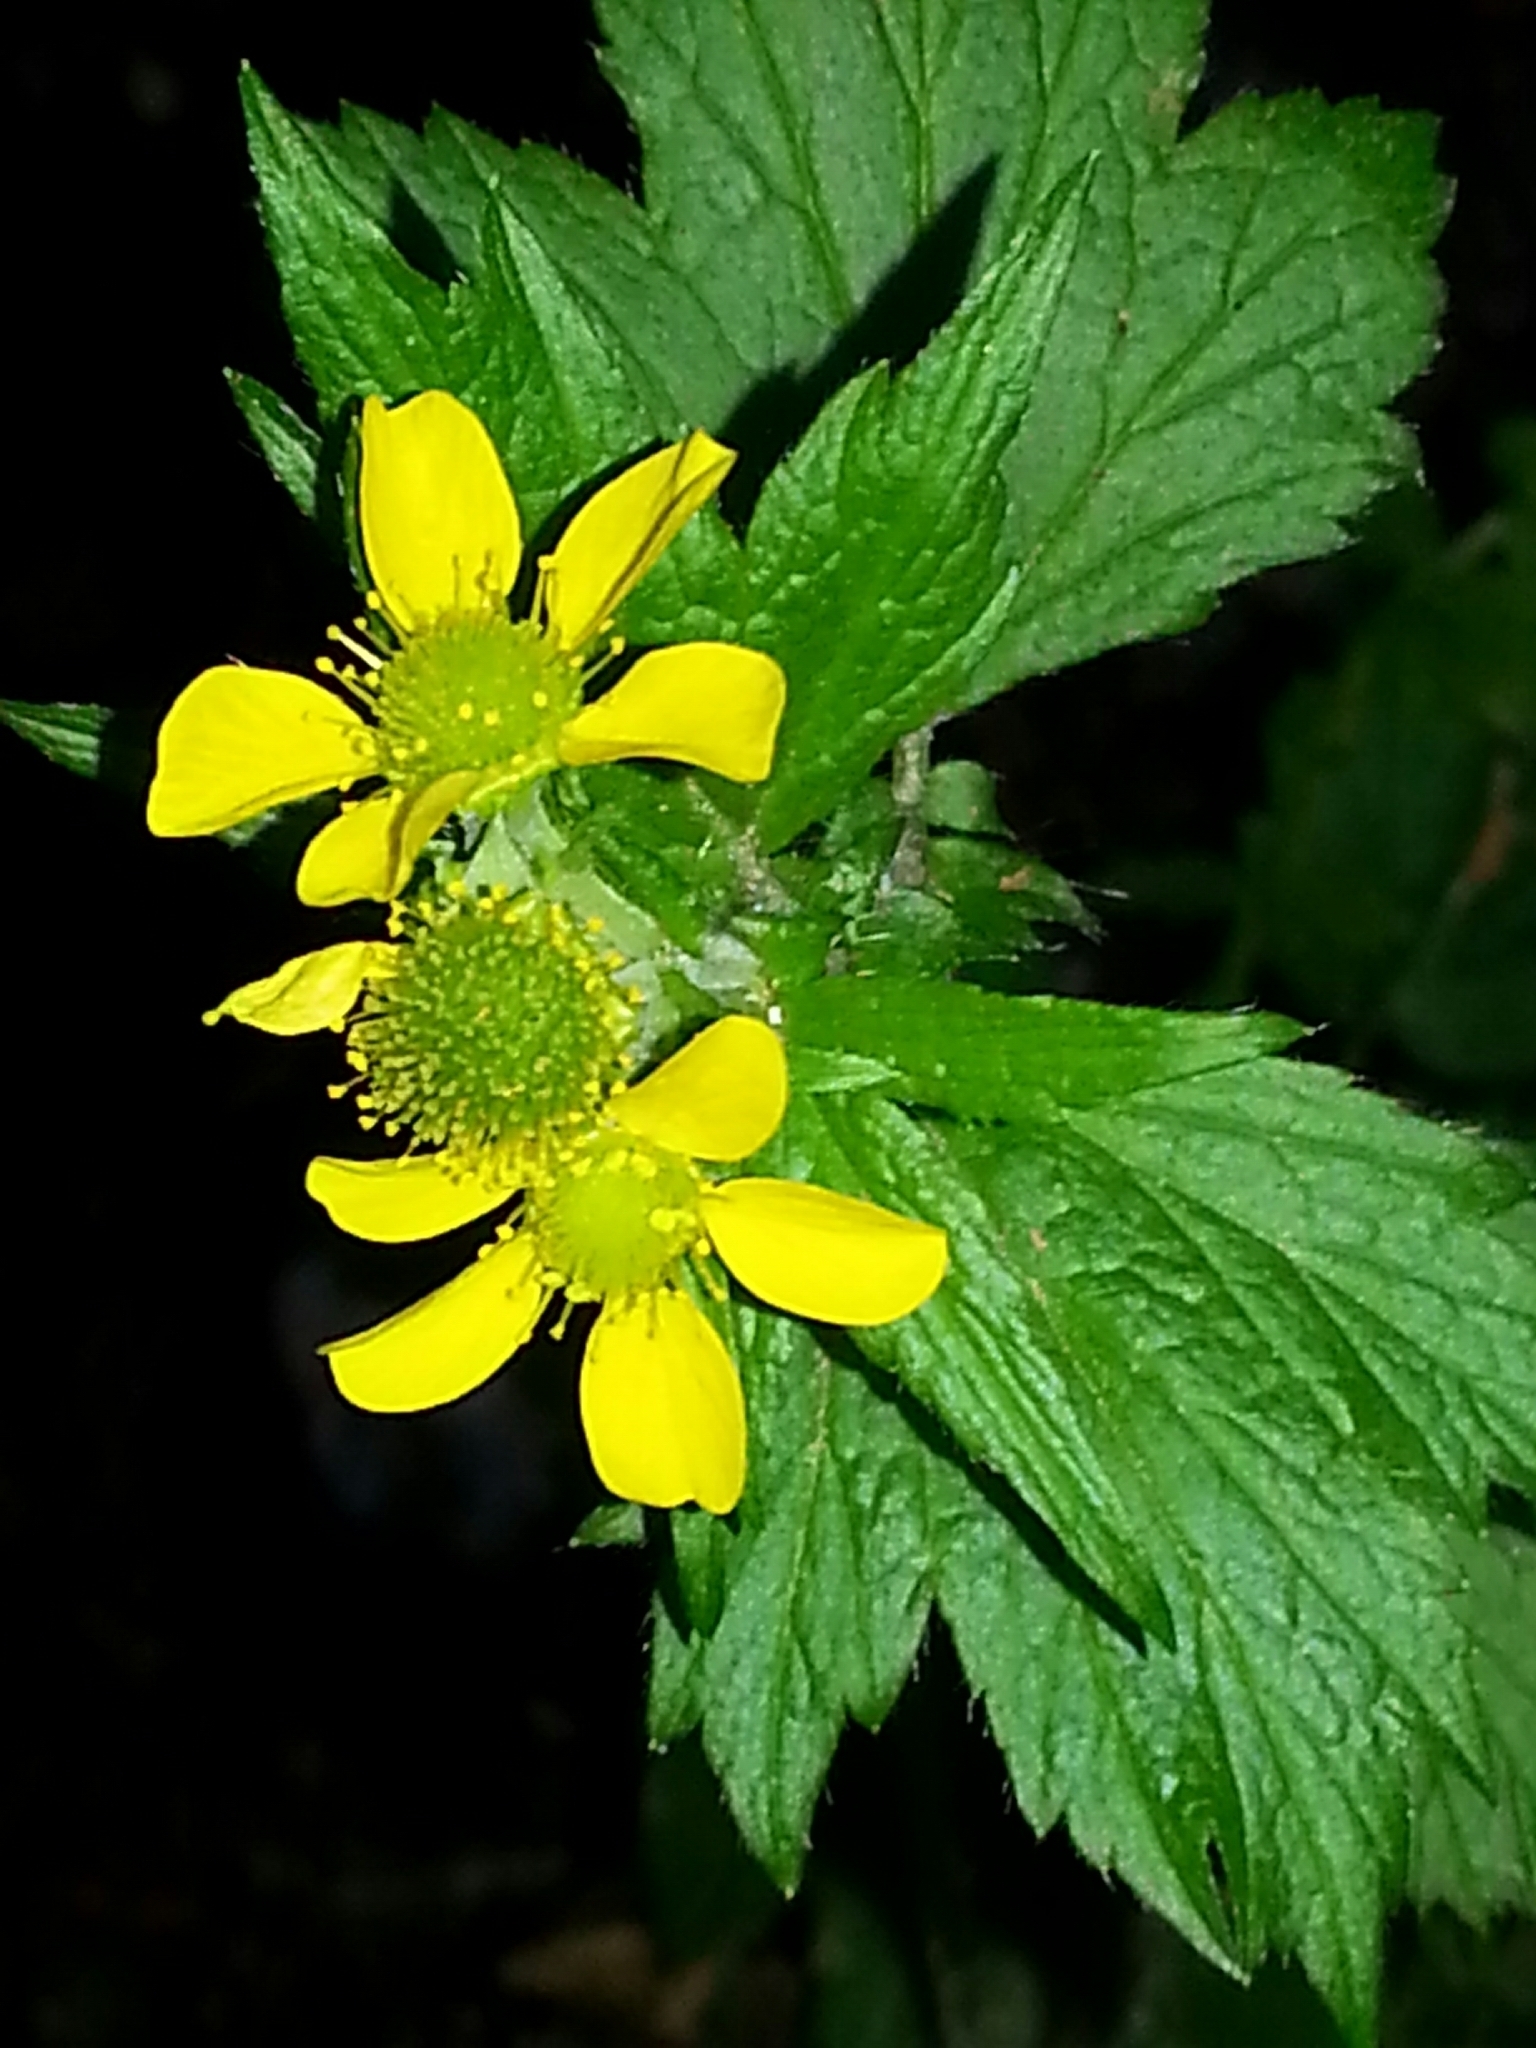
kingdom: Plantae
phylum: Tracheophyta
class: Magnoliopsida
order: Rosales
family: Rosaceae
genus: Geum
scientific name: Geum macrophyllum
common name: Large-leaved avens
